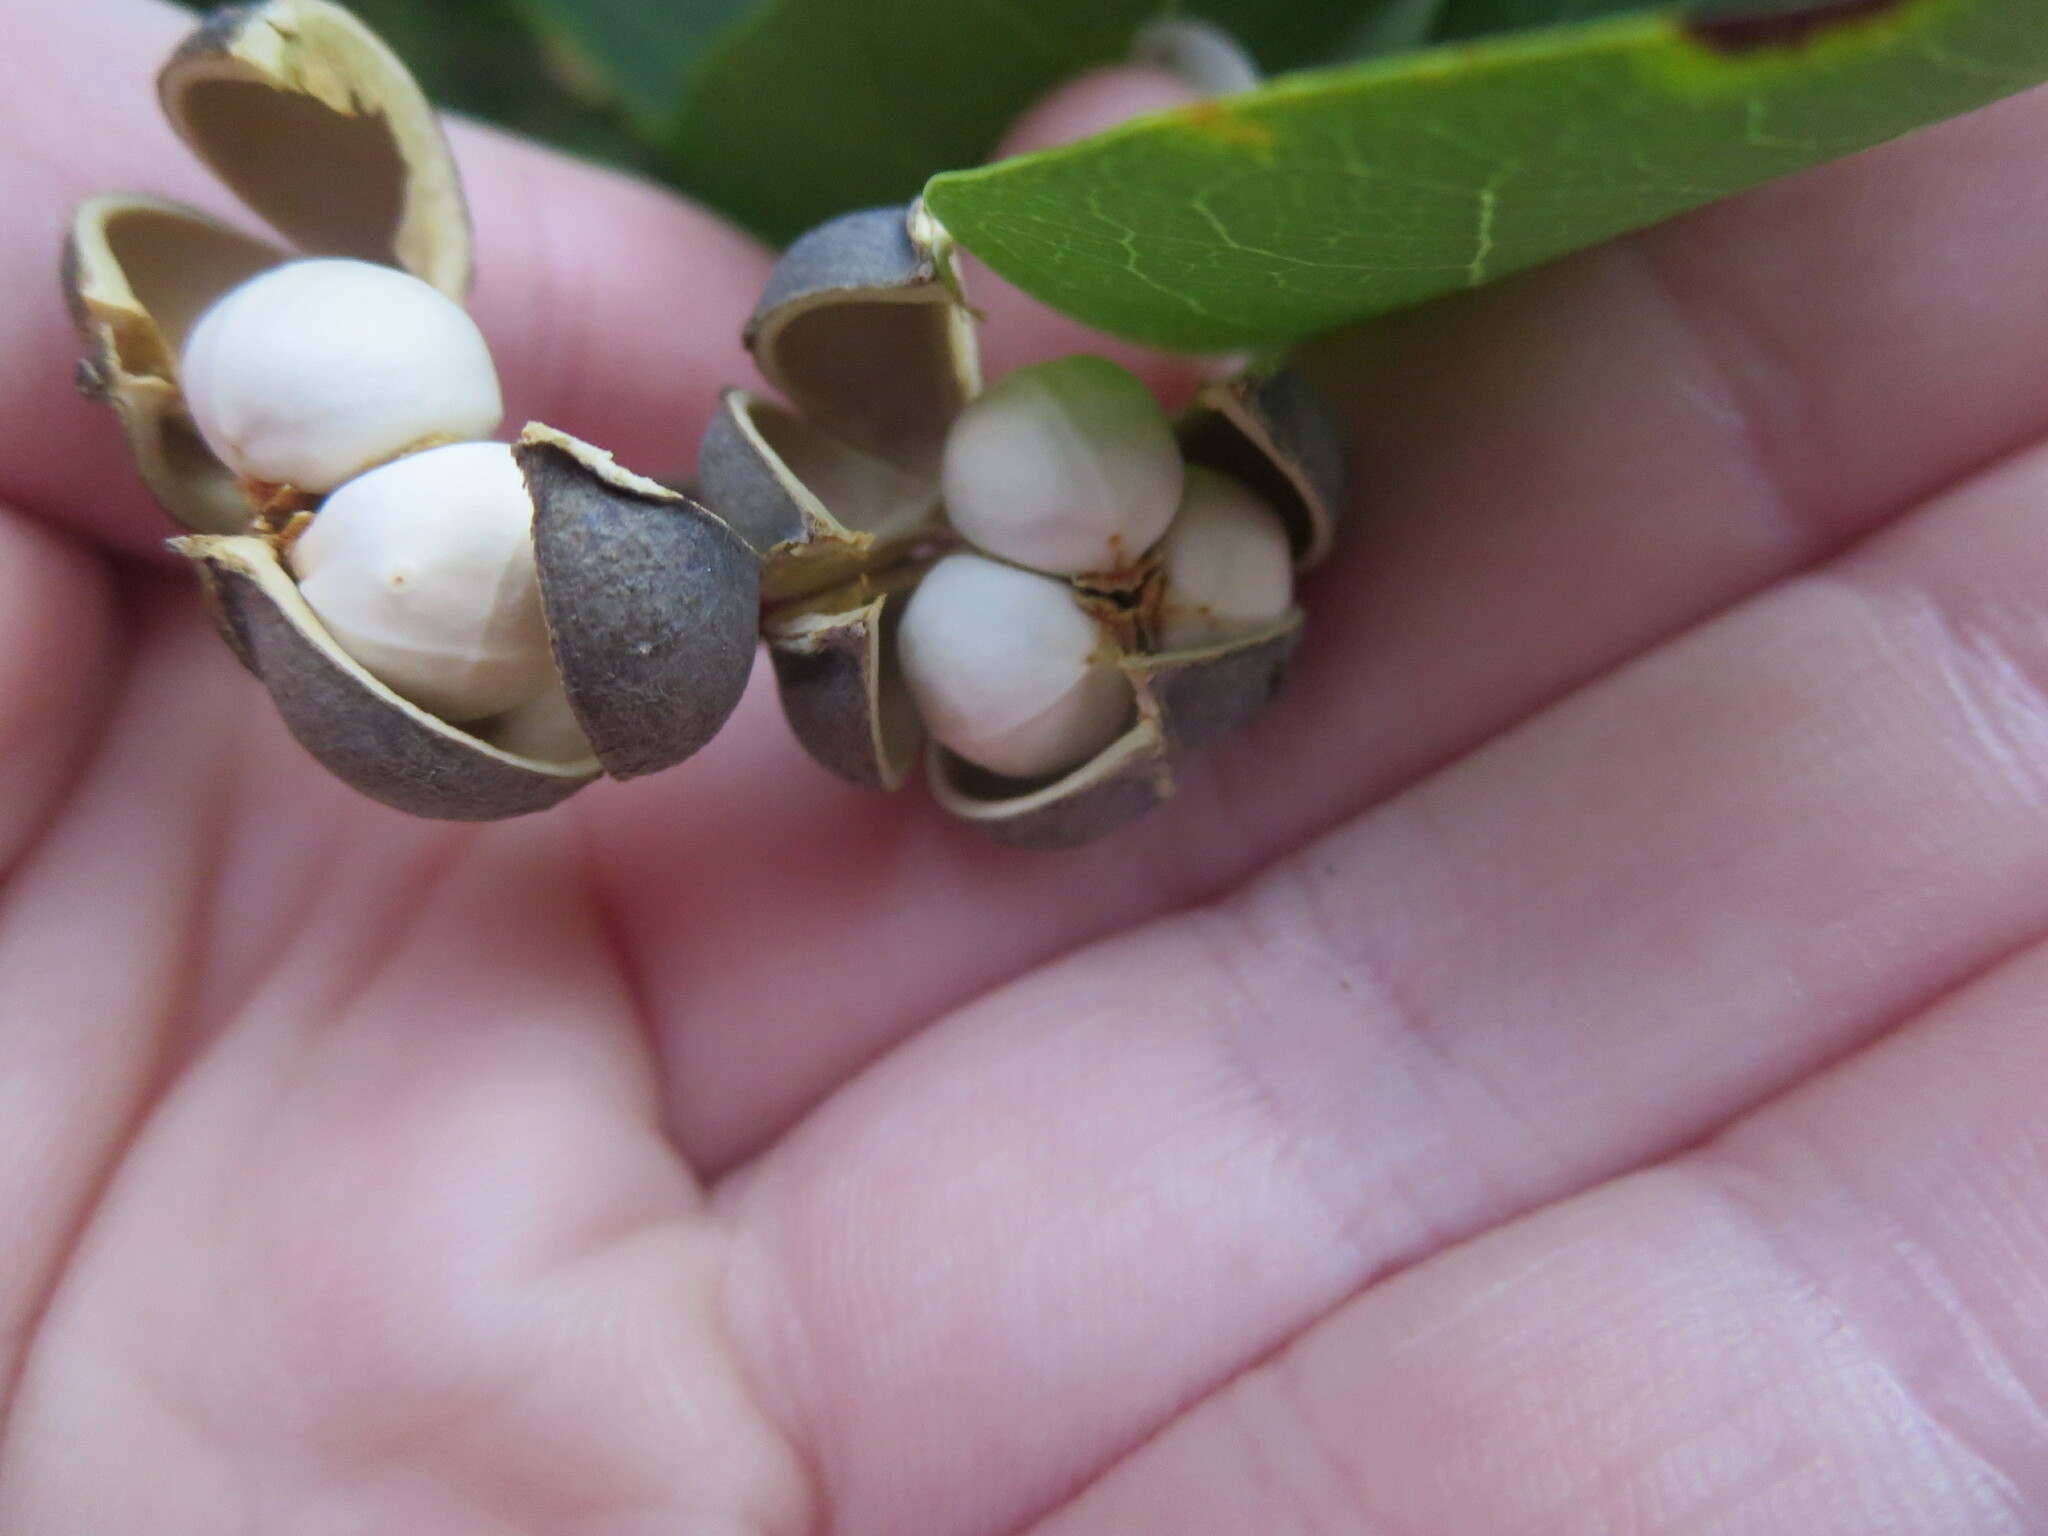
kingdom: Plantae
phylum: Tracheophyta
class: Magnoliopsida
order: Malpighiales
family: Euphorbiaceae
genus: Triadica
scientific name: Triadica sebifera
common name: Chinese tallow
